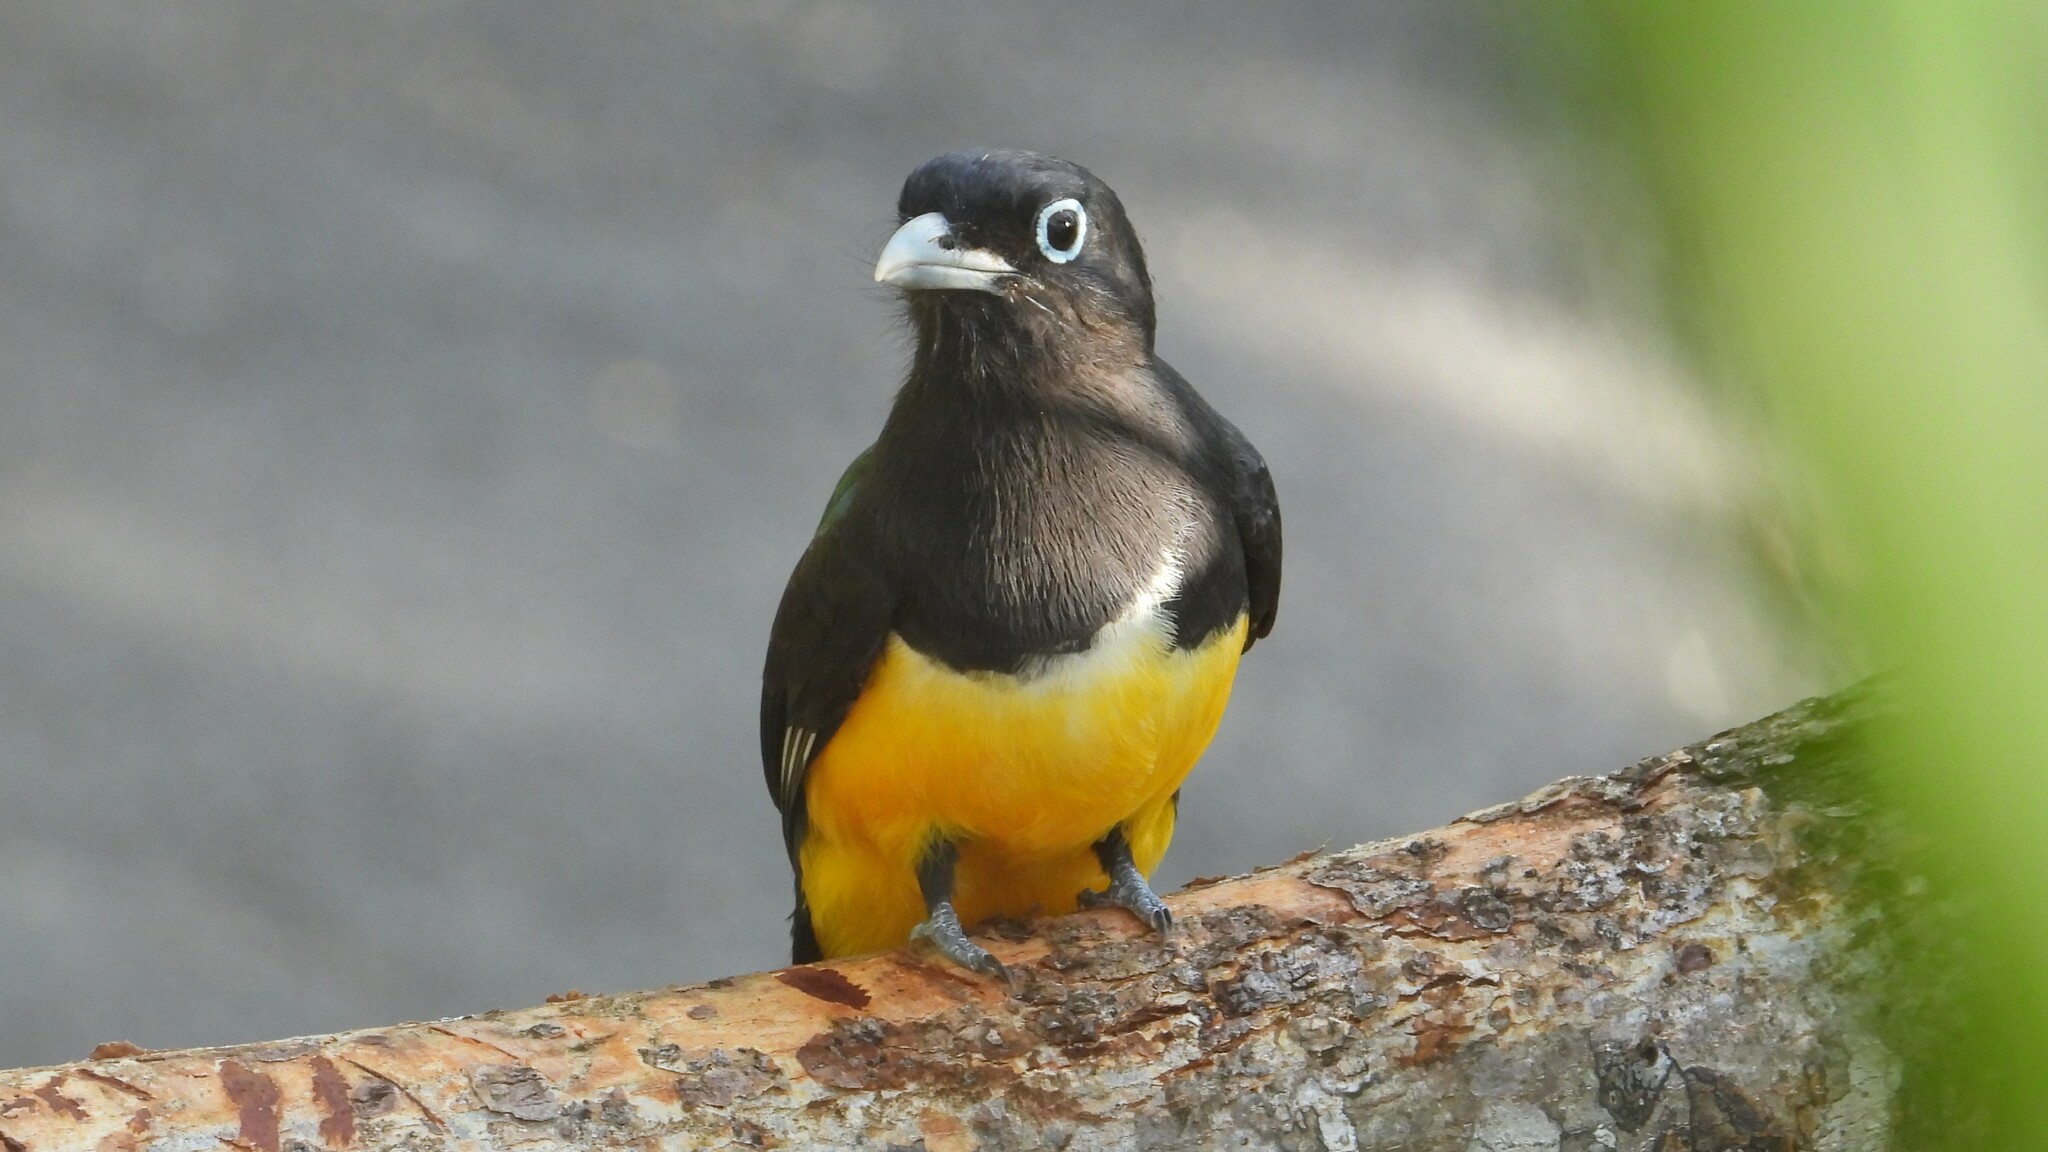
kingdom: Animalia
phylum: Chordata
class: Aves
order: Trogoniformes
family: Trogonidae
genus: Trogon
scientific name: Trogon melanocephalus
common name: Black-headed trogon
